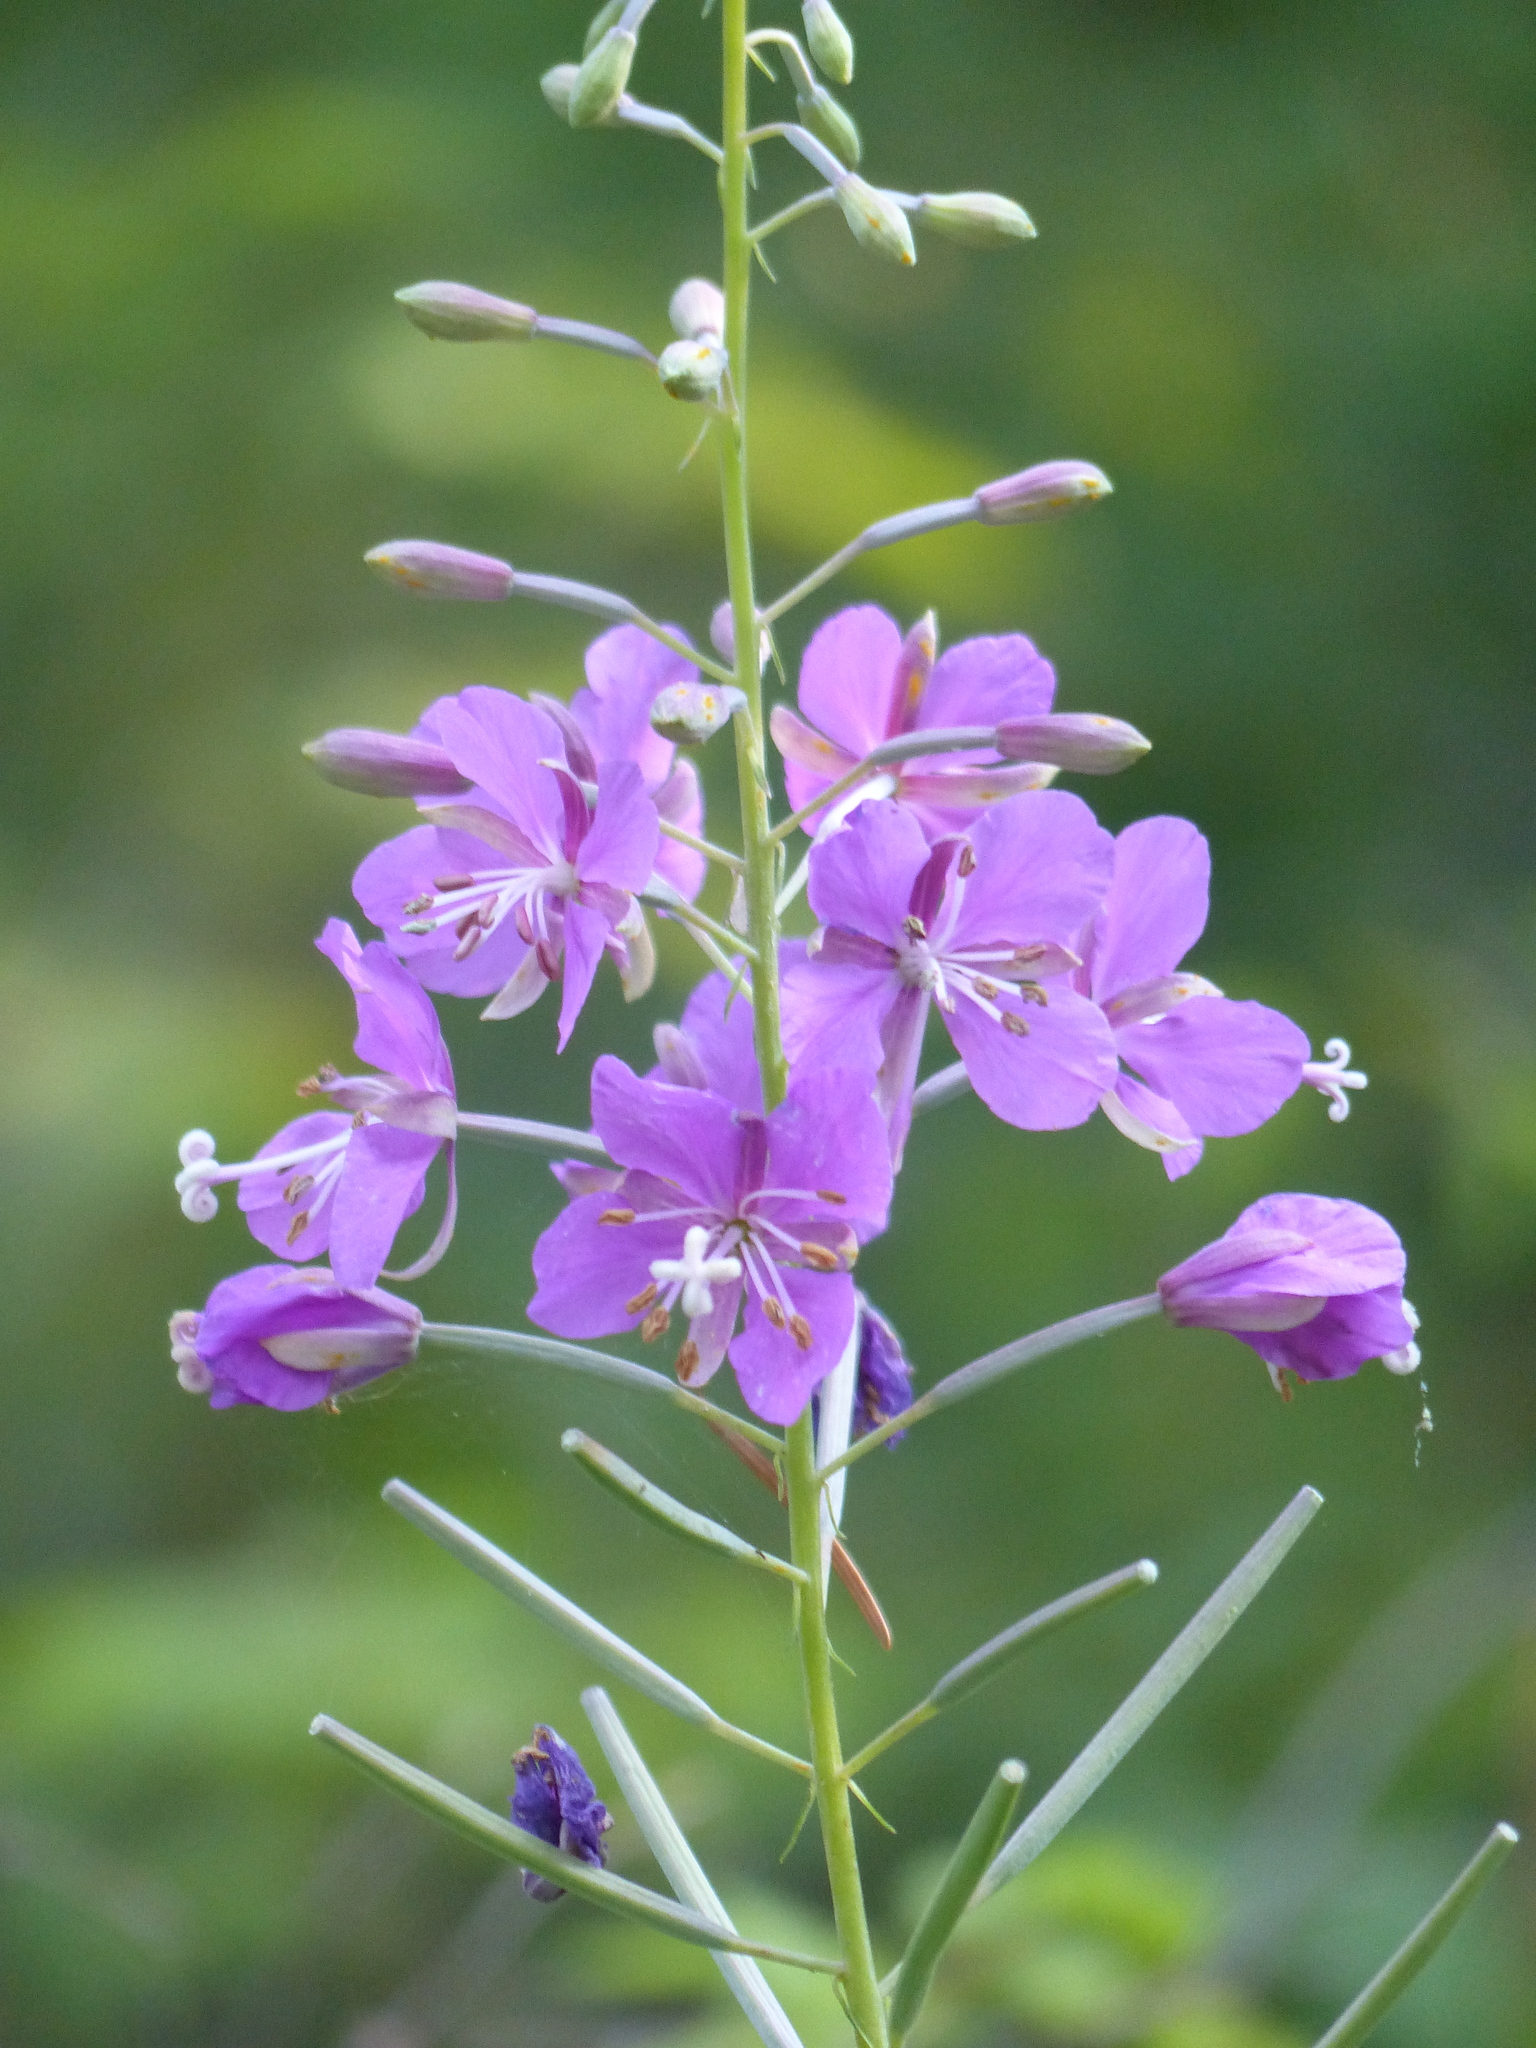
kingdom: Plantae
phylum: Tracheophyta
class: Magnoliopsida
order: Myrtales
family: Onagraceae
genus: Chamaenerion
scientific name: Chamaenerion angustifolium
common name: Fireweed
